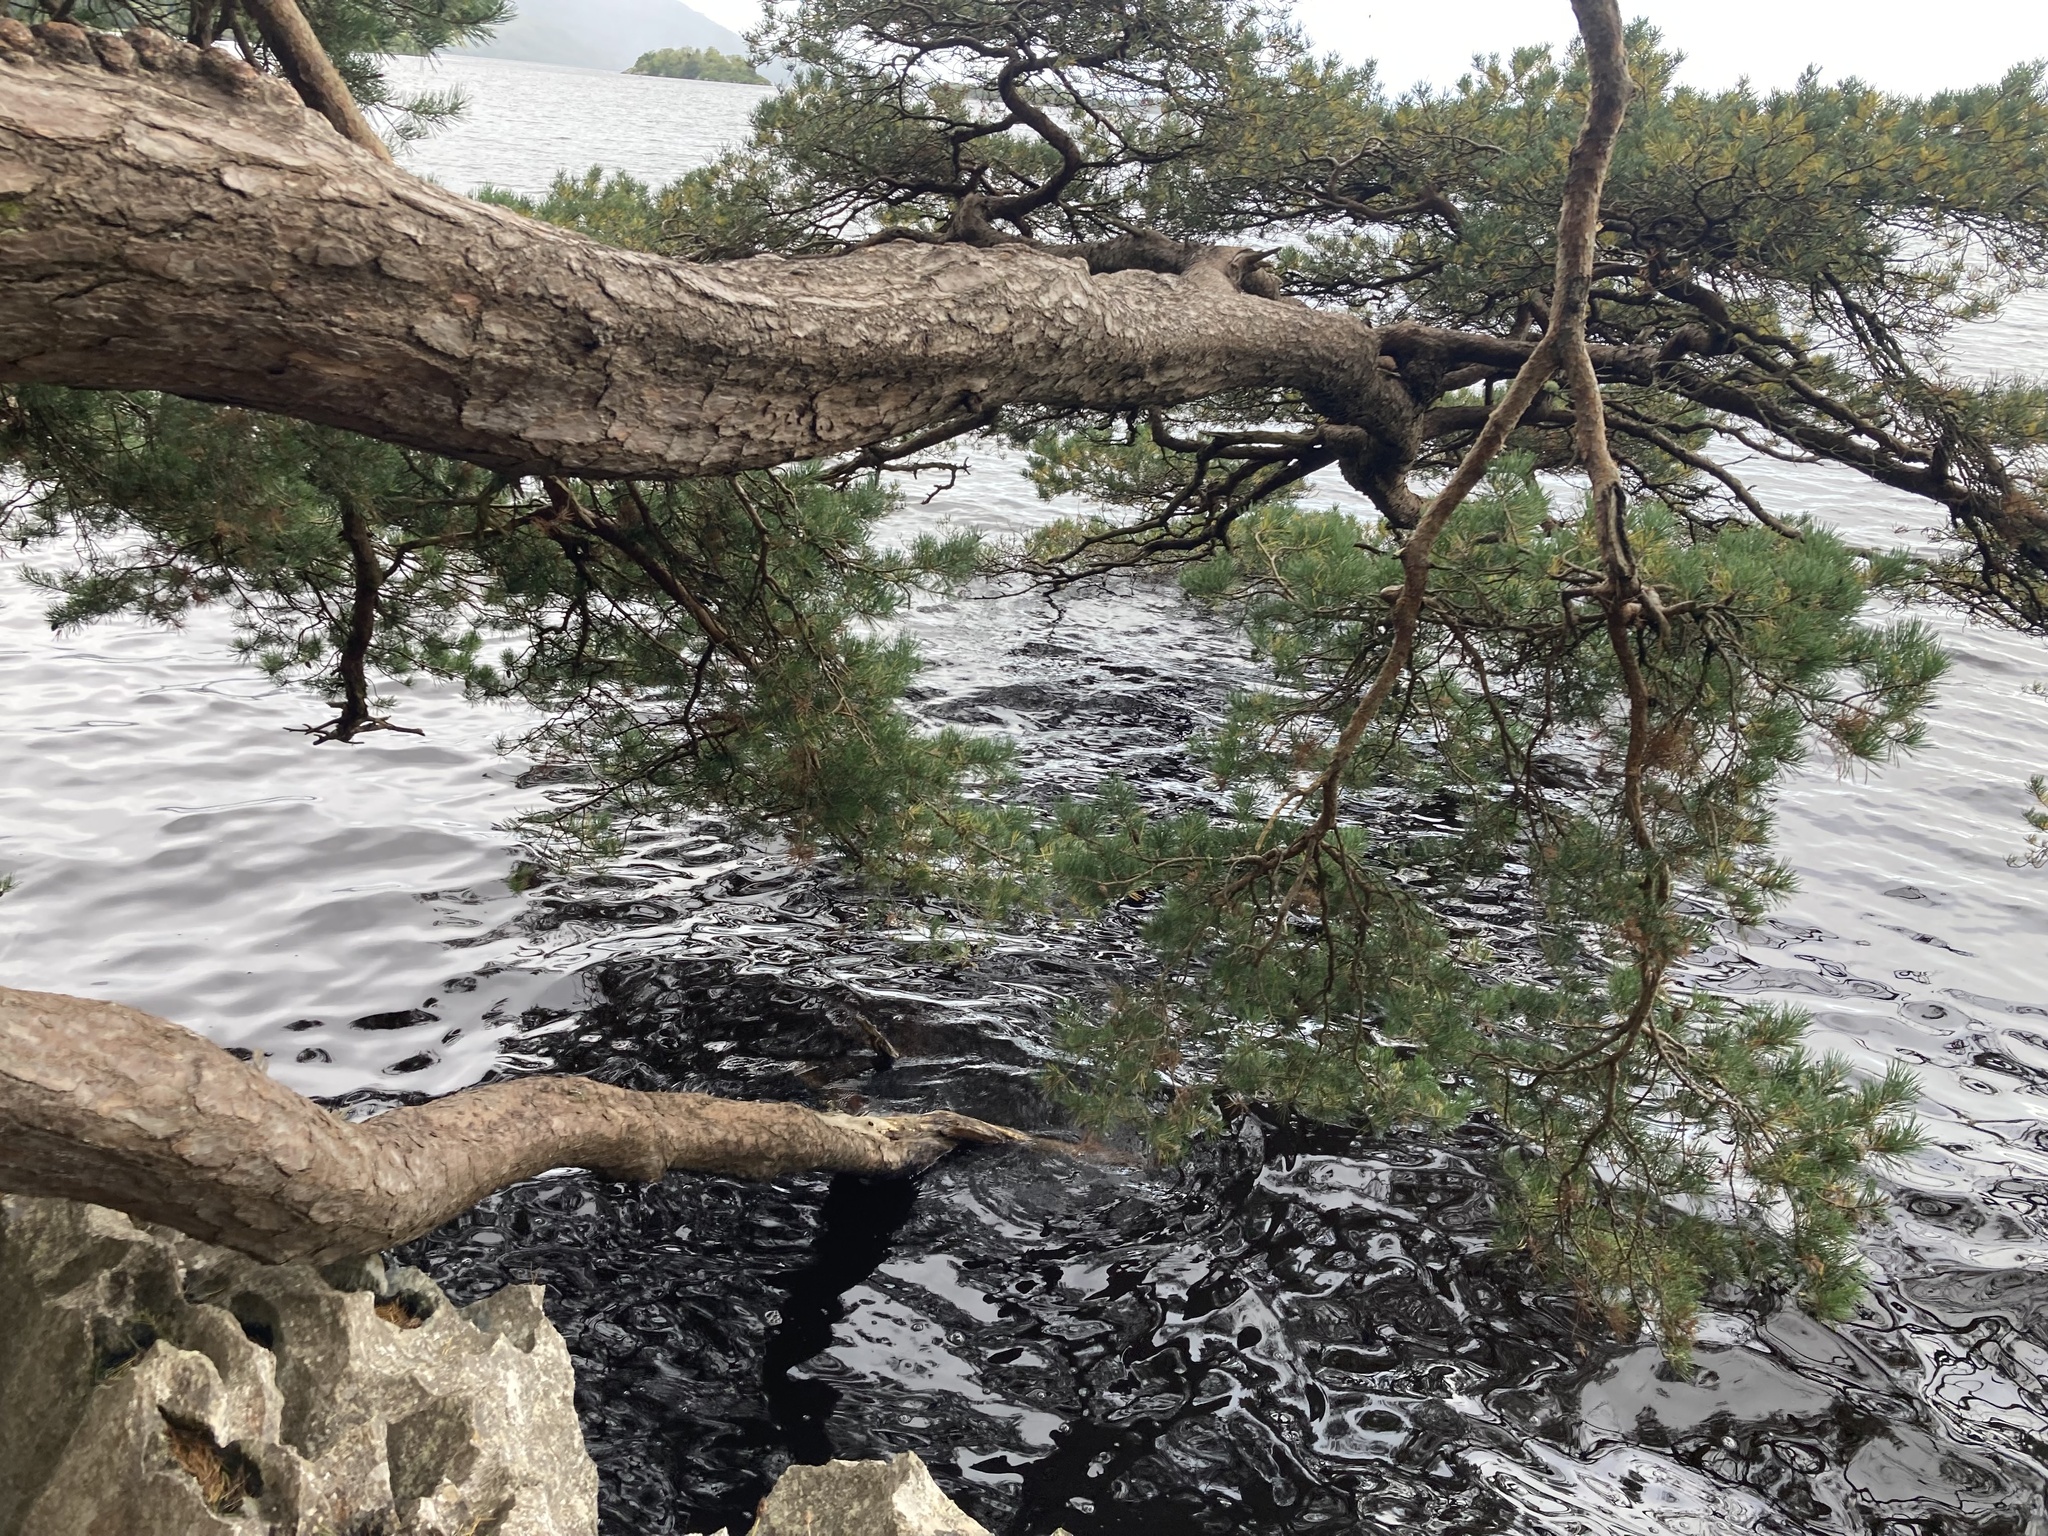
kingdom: Plantae
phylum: Tracheophyta
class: Pinopsida
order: Pinales
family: Pinaceae
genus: Pinus
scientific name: Pinus sylvestris
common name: Scots pine
